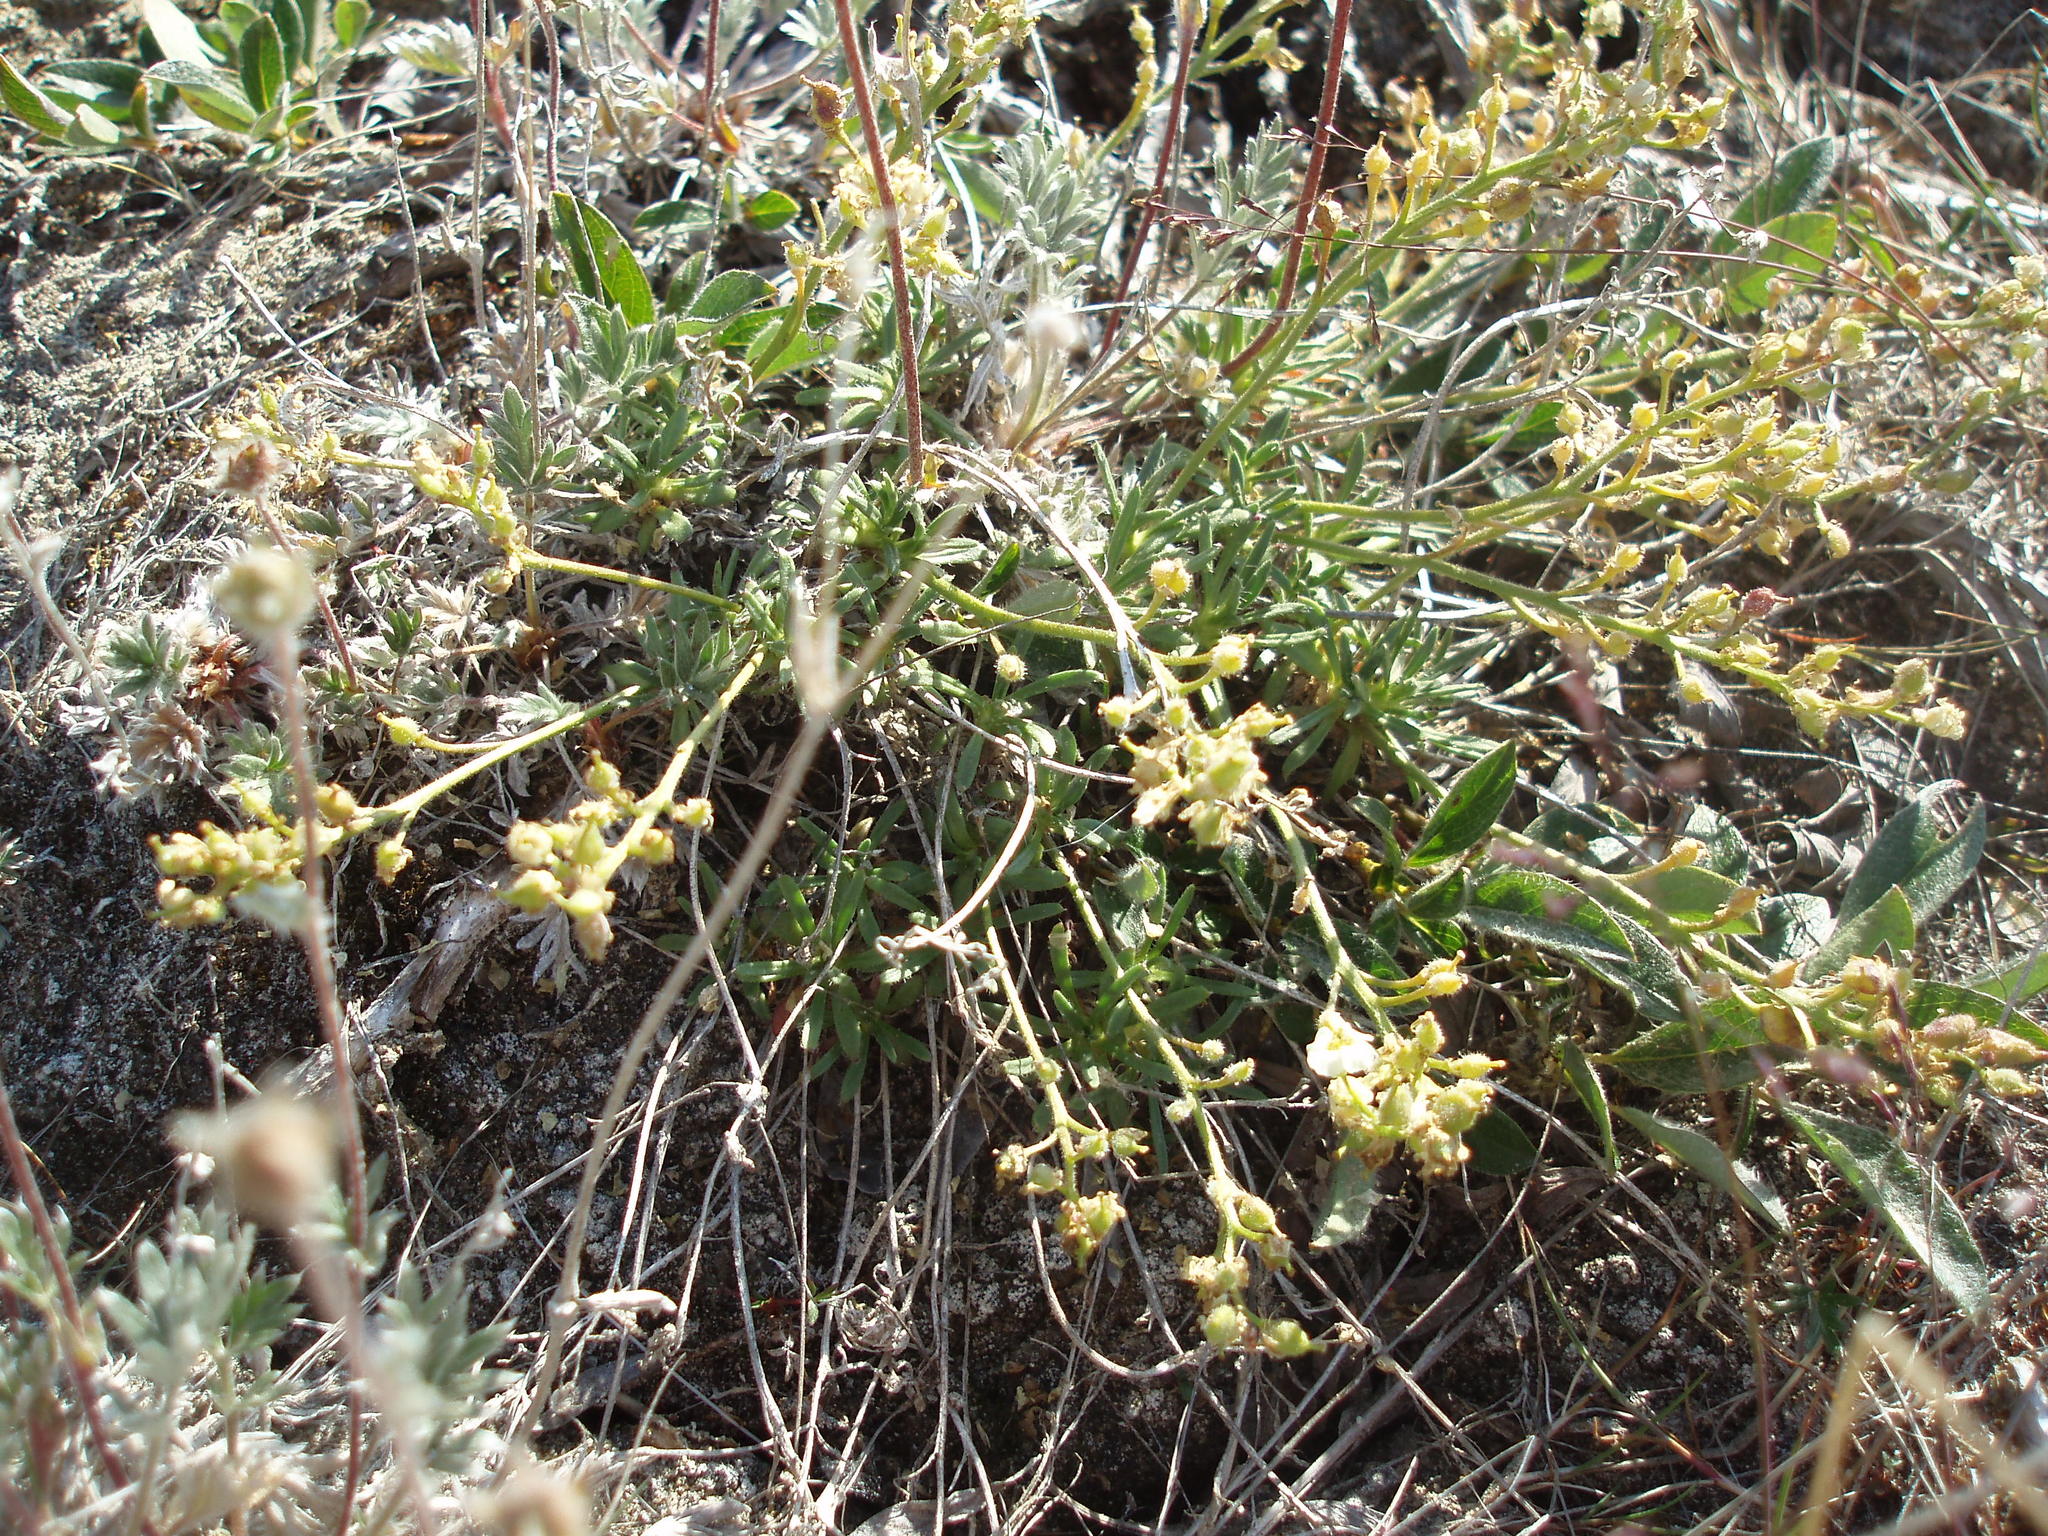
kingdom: Plantae
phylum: Tracheophyta
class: Magnoliopsida
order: Brassicales
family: Brassicaceae
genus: Braya
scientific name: Braya pilosa
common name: Hairy braya
